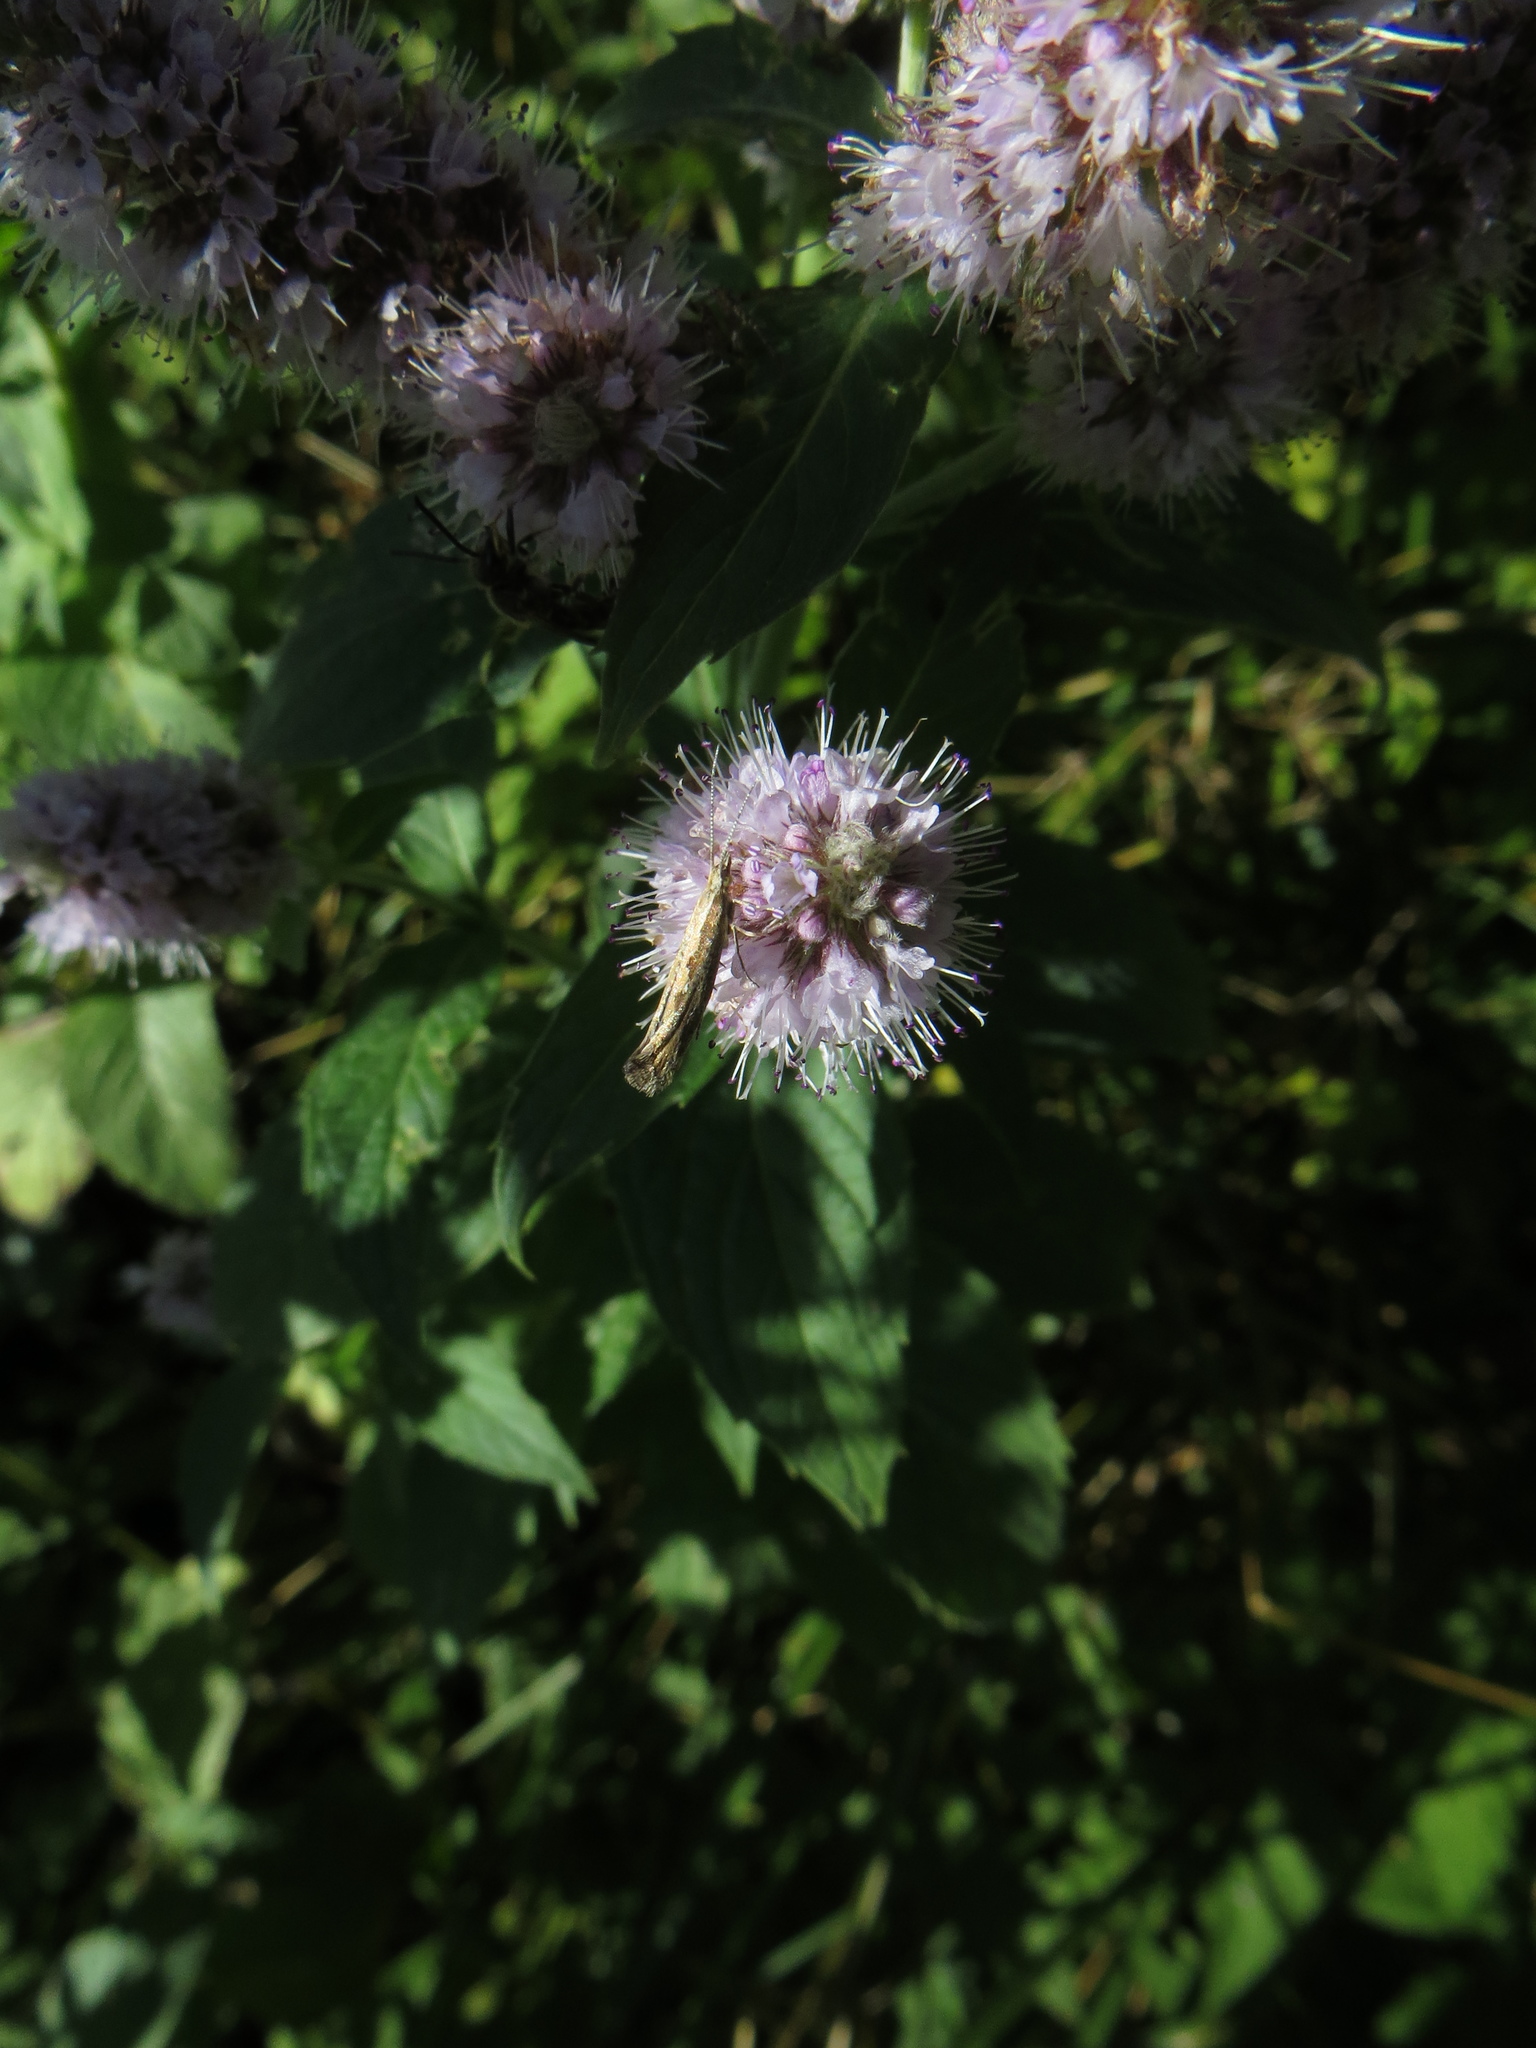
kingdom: Animalia
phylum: Arthropoda
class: Insecta
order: Lepidoptera
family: Plutellidae
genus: Plutella
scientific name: Plutella xylostella
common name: Diamond-back moth
